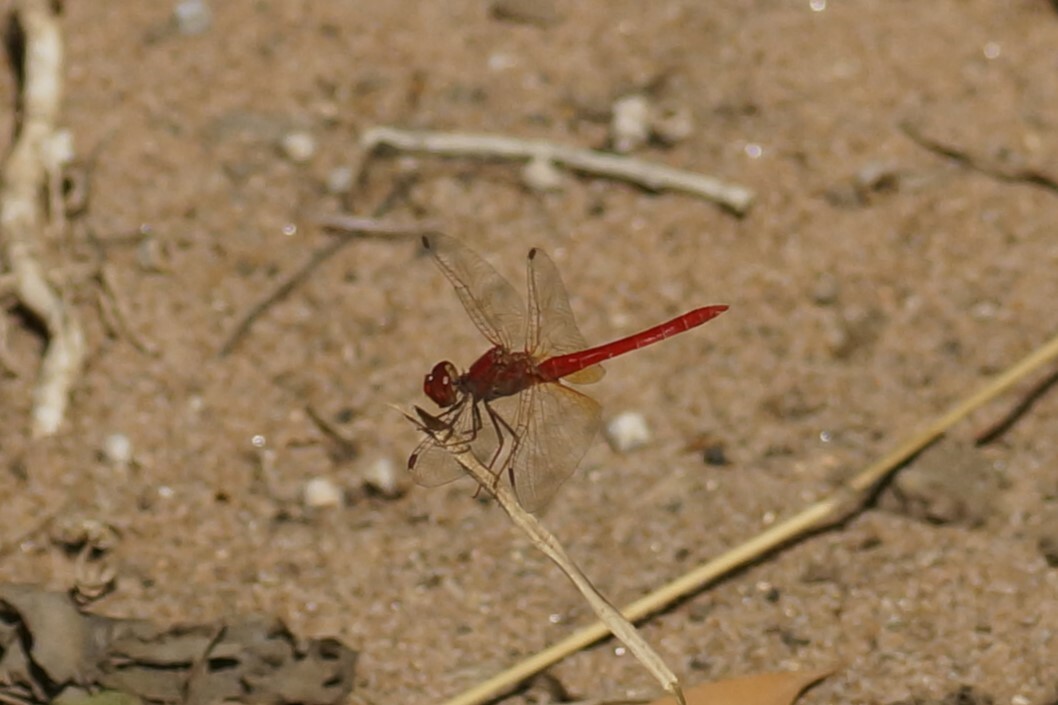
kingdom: Animalia
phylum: Arthropoda
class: Insecta
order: Odonata
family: Libellulidae
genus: Diplacodes
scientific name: Diplacodes haematodes
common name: Scarlet percher
